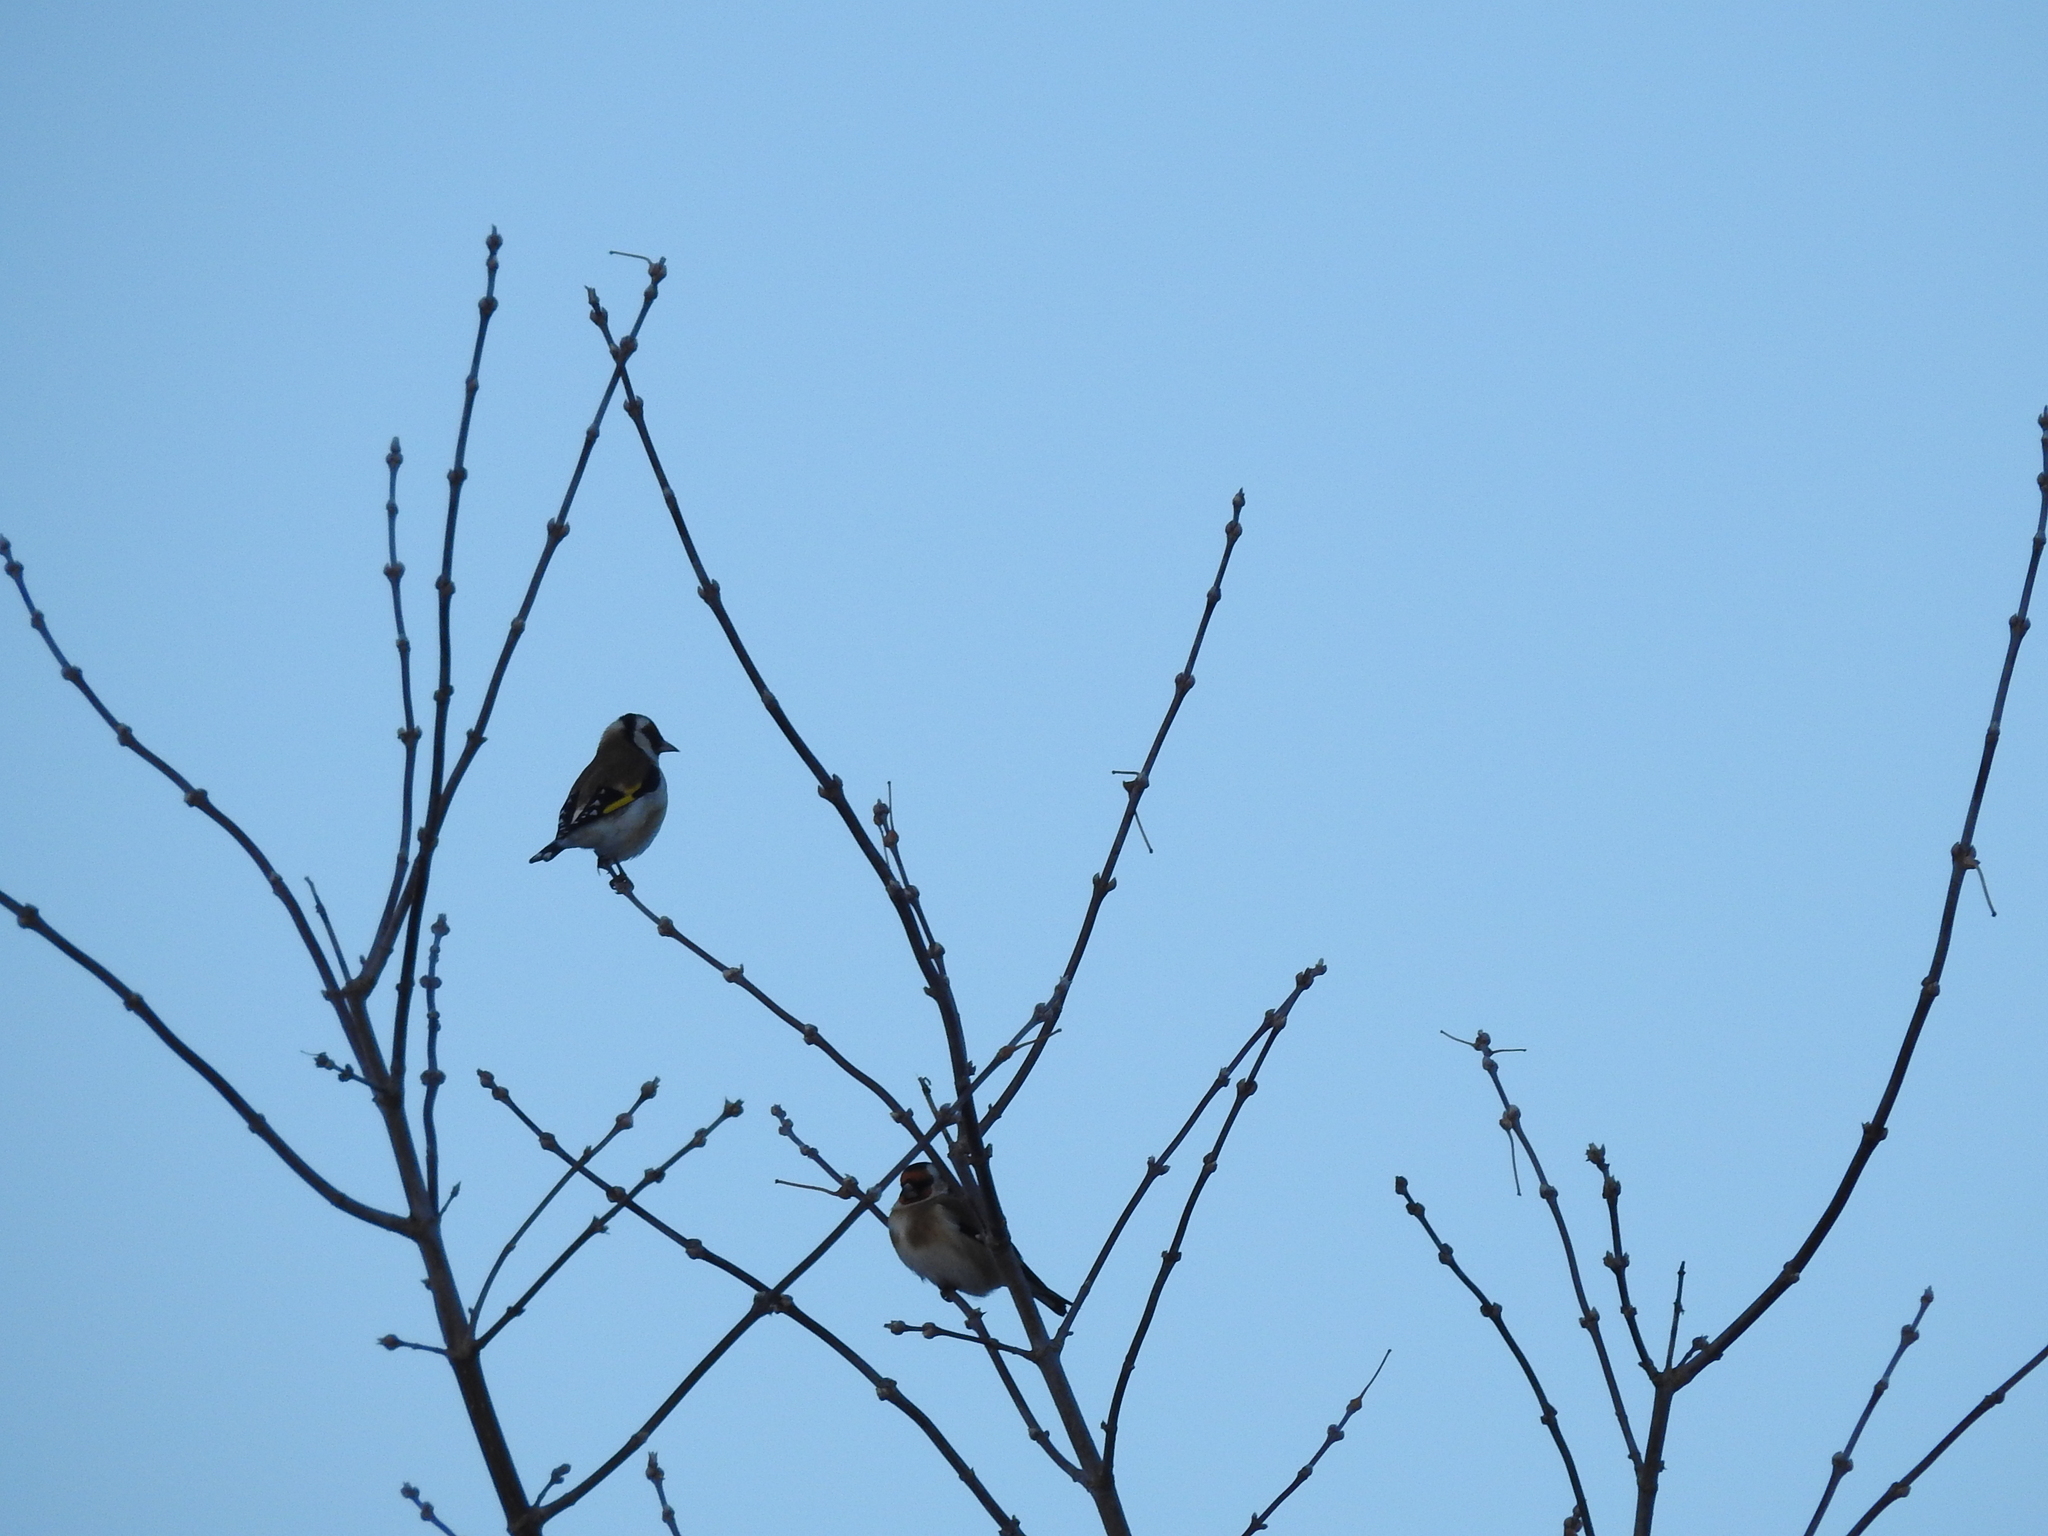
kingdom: Animalia
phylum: Chordata
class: Aves
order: Passeriformes
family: Fringillidae
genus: Carduelis
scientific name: Carduelis carduelis
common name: European goldfinch
